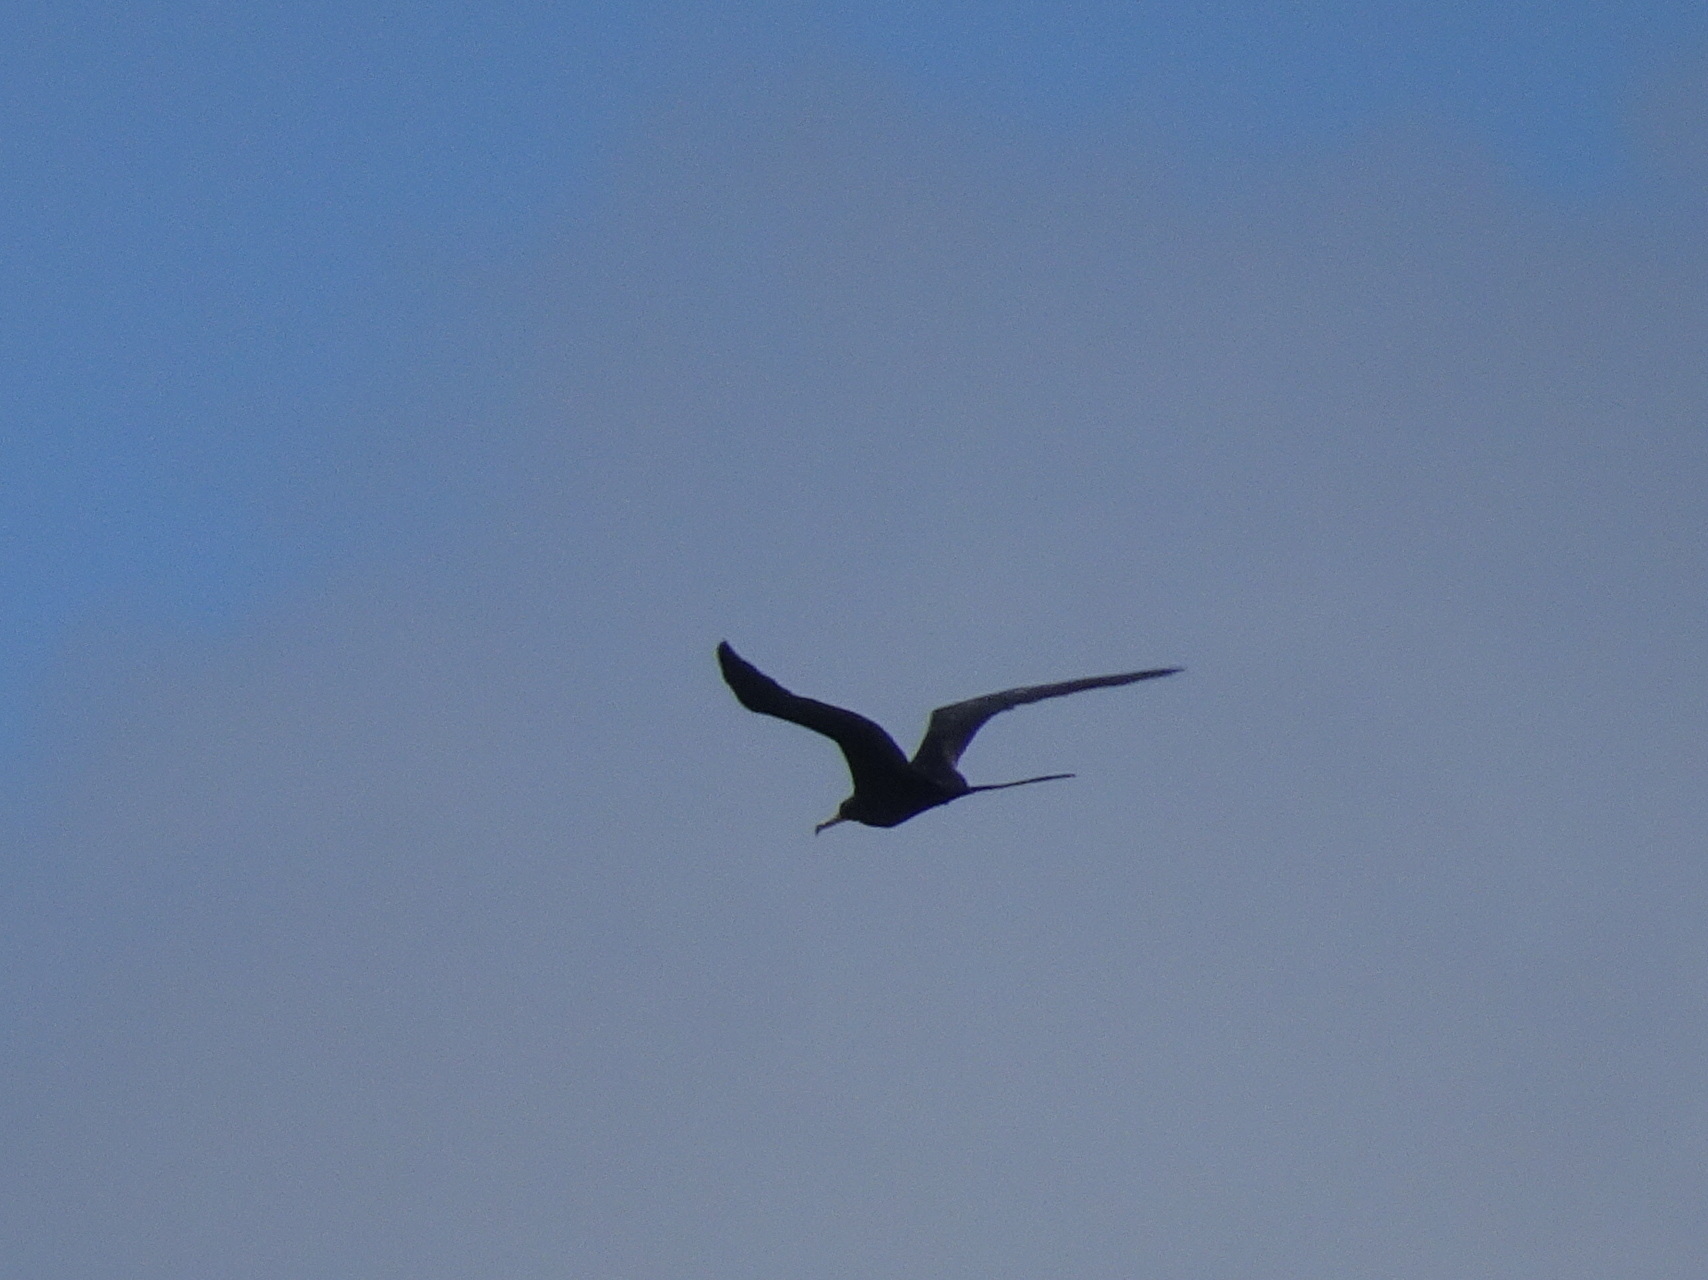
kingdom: Animalia
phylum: Chordata
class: Aves
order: Suliformes
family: Fregatidae
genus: Fregata
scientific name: Fregata magnificens
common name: Magnificent frigatebird
